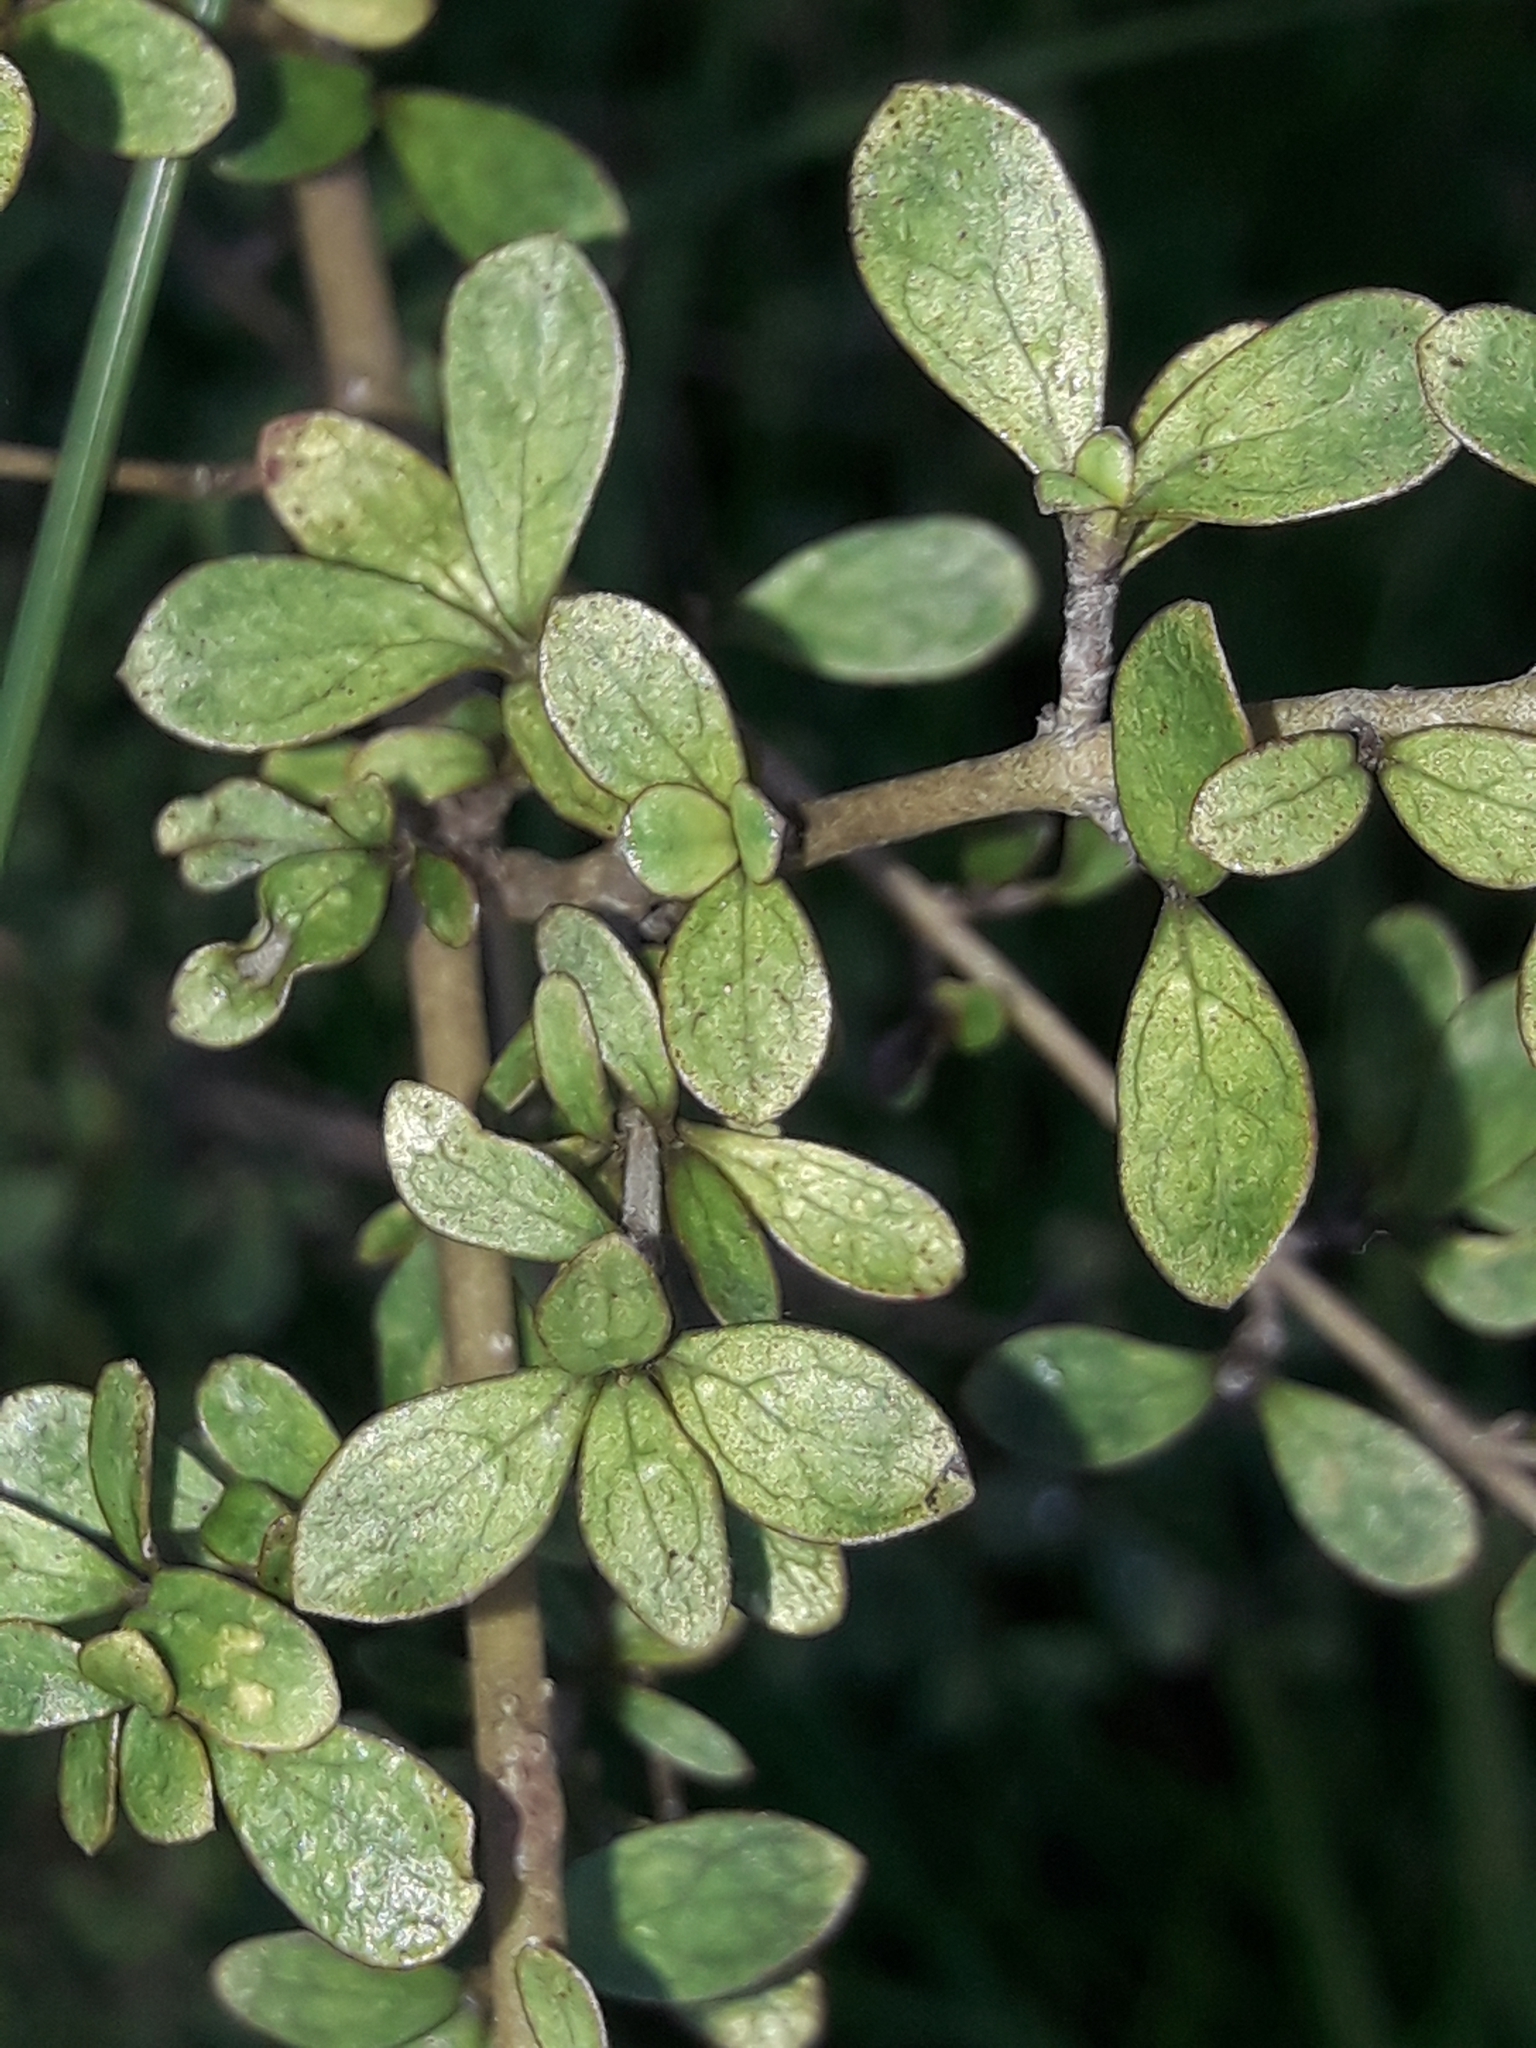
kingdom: Plantae
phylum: Tracheophyta
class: Magnoliopsida
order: Gentianales
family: Rubiaceae
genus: Coprosma
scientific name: Coprosma parviflora
